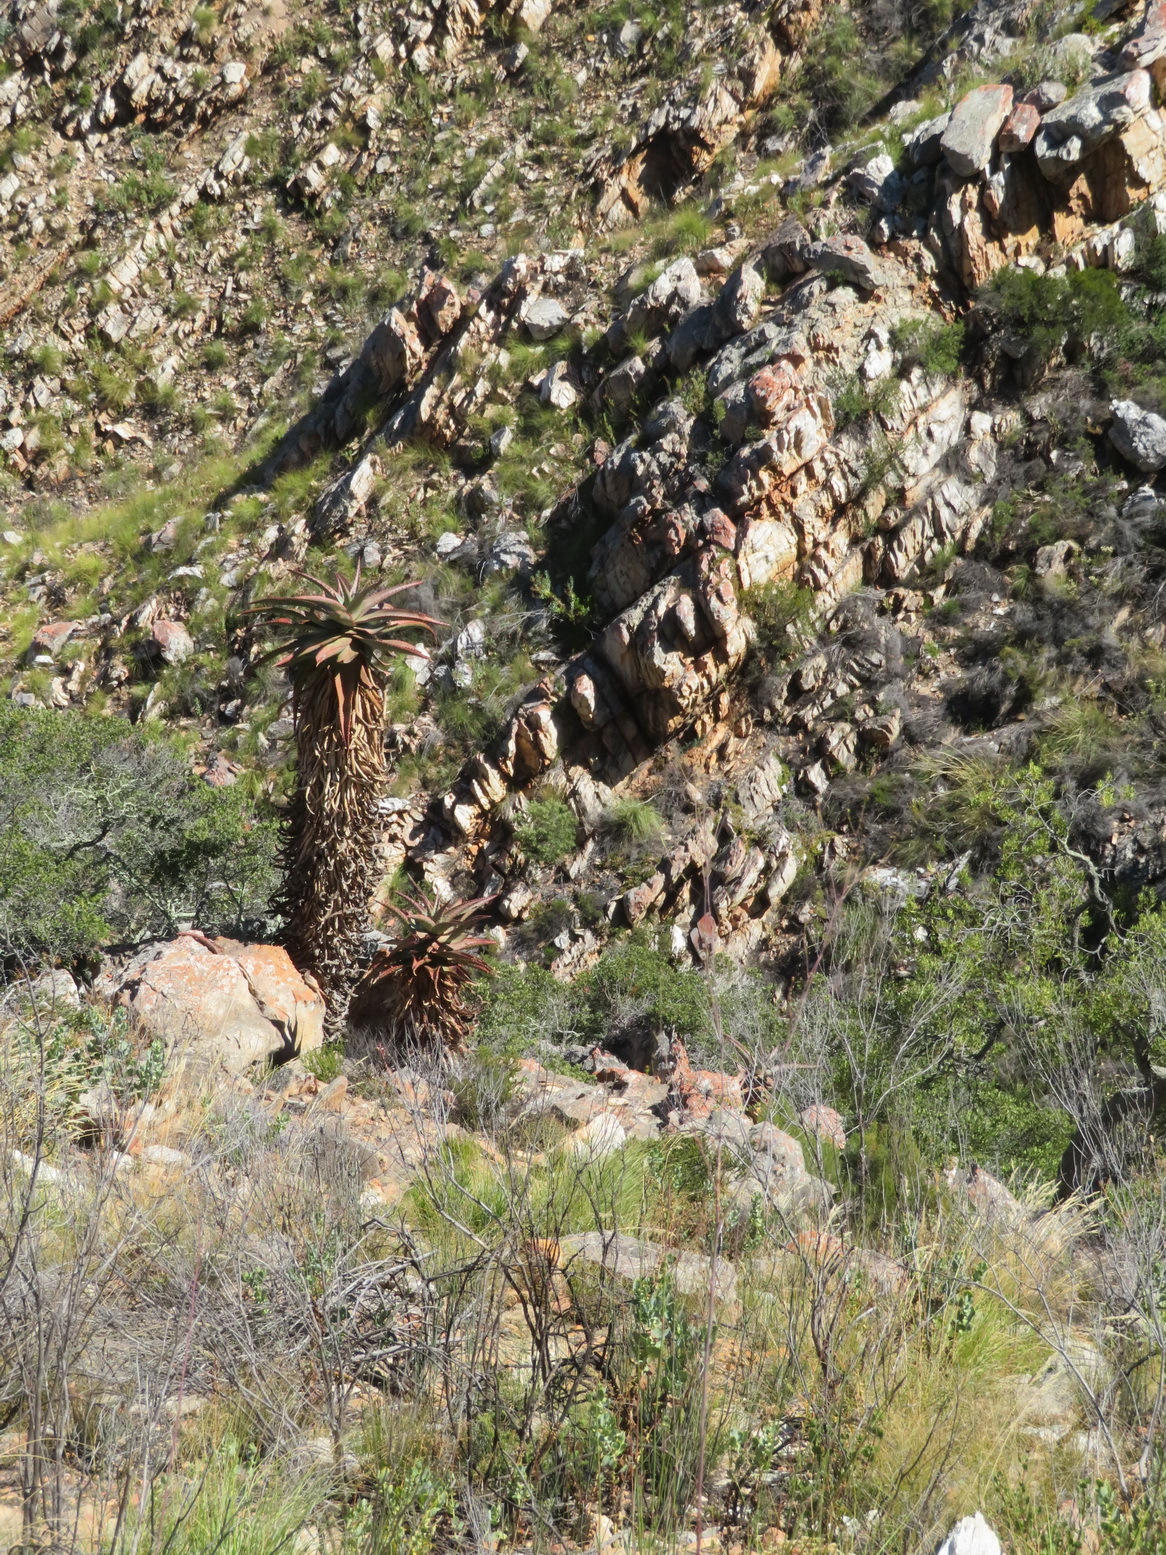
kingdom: Plantae
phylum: Tracheophyta
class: Liliopsida
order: Asparagales
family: Asphodelaceae
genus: Aloe
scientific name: Aloe ferox
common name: Bitter aloe
